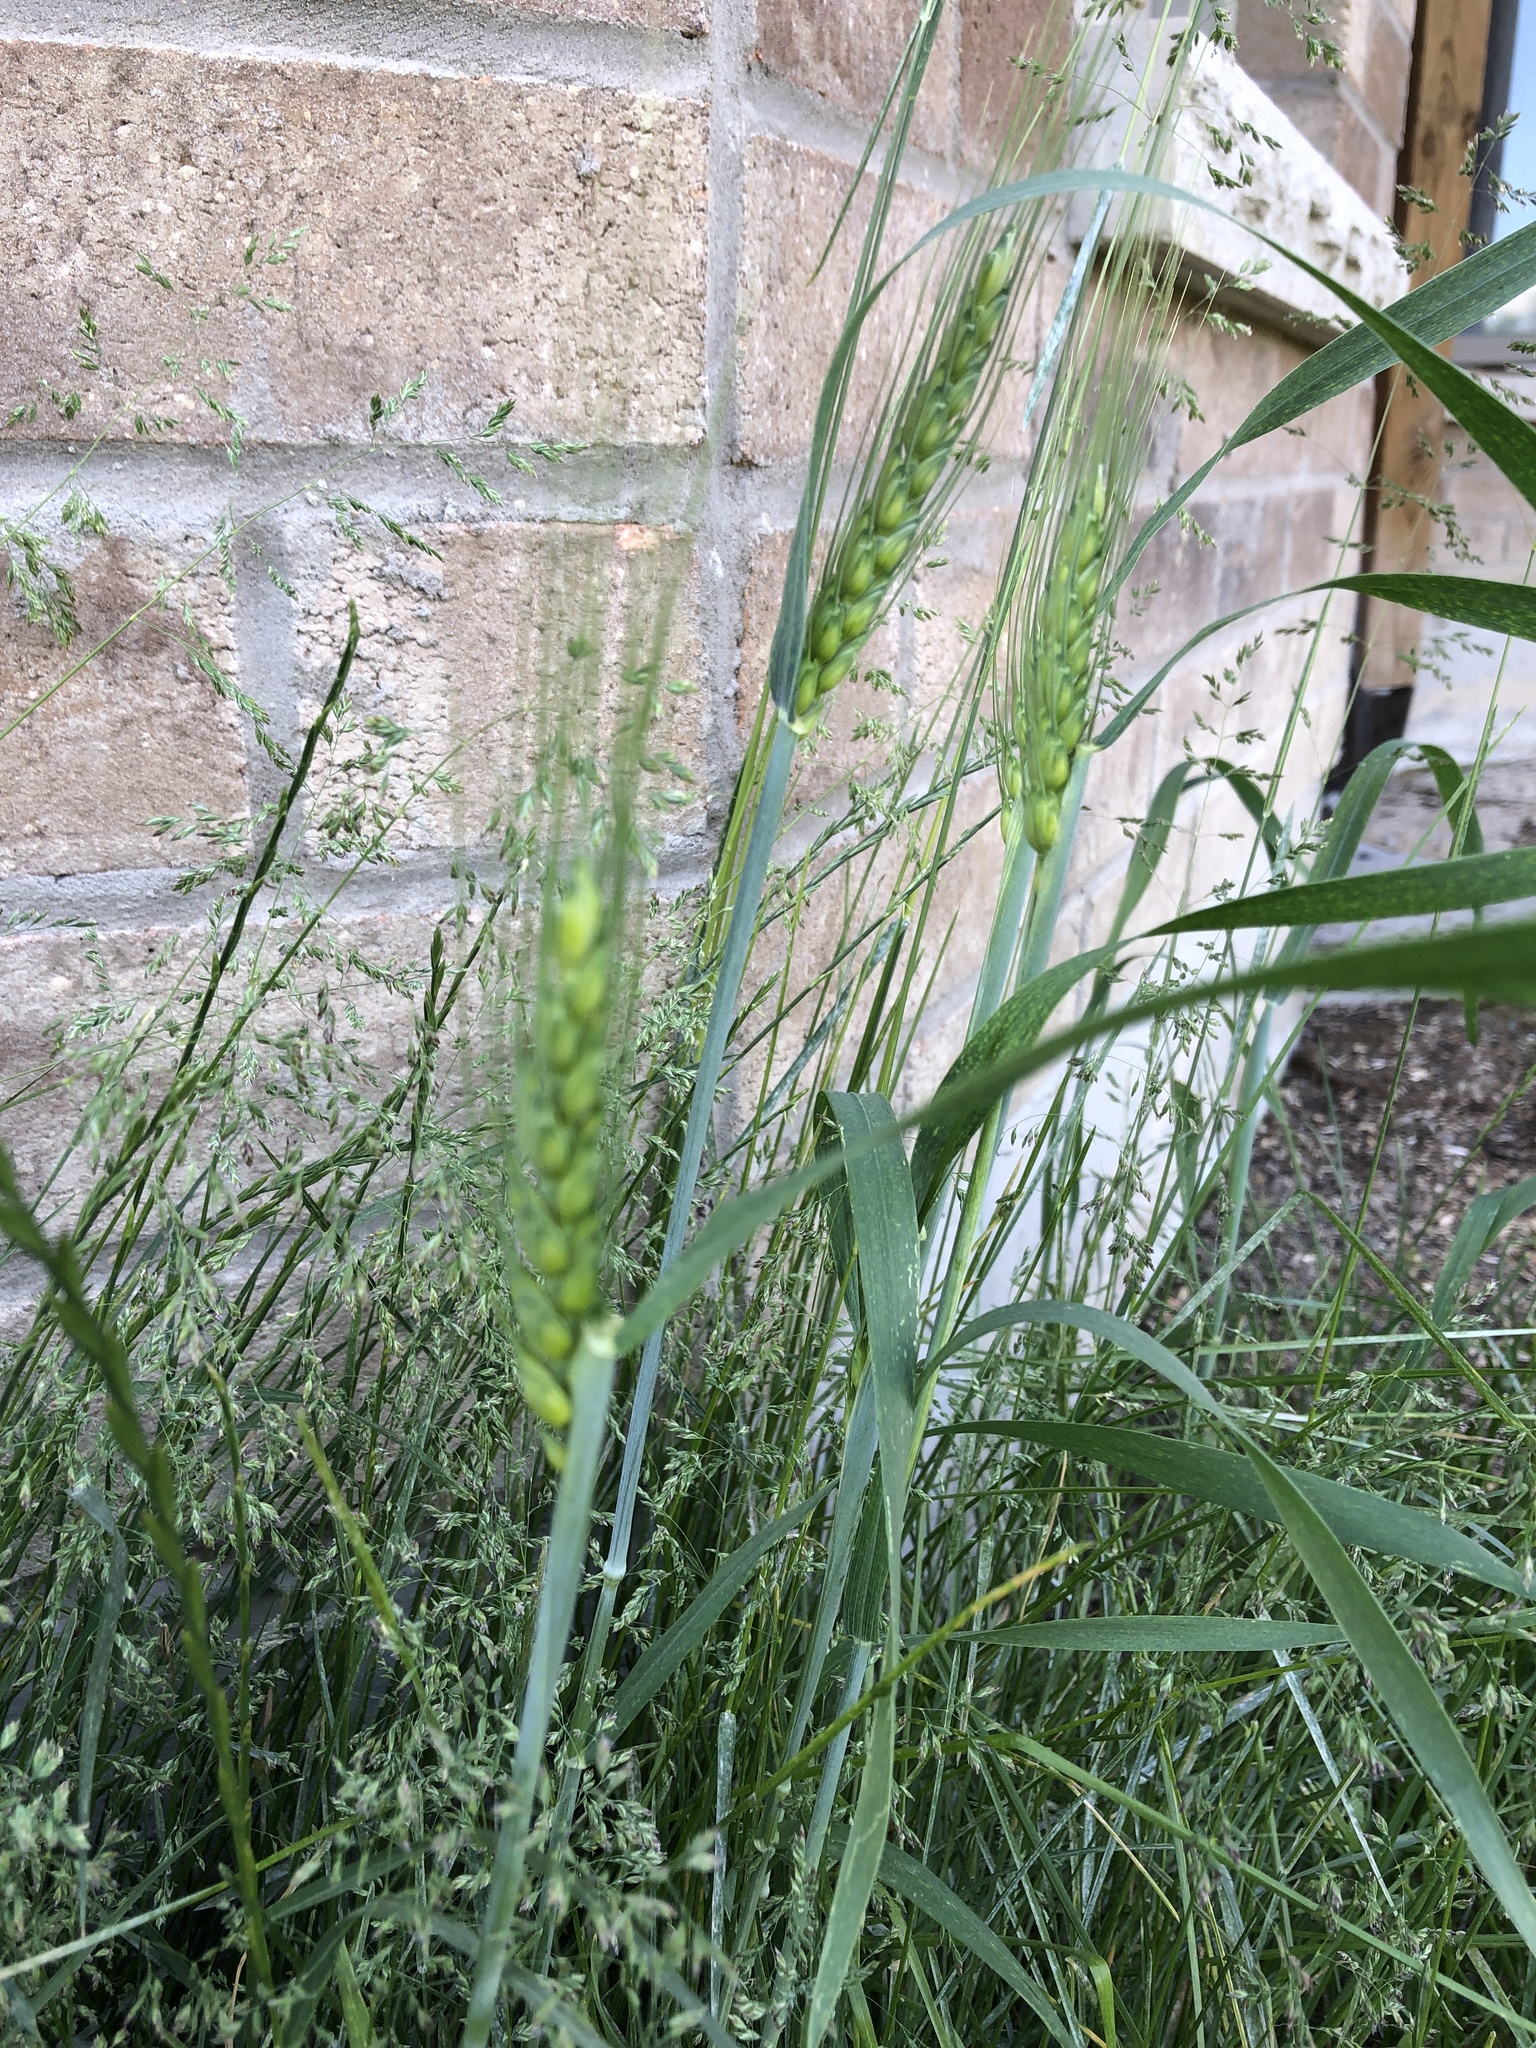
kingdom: Plantae
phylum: Tracheophyta
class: Liliopsida
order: Poales
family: Poaceae
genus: Triticum
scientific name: Triticum aestivum
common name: Common wheat
